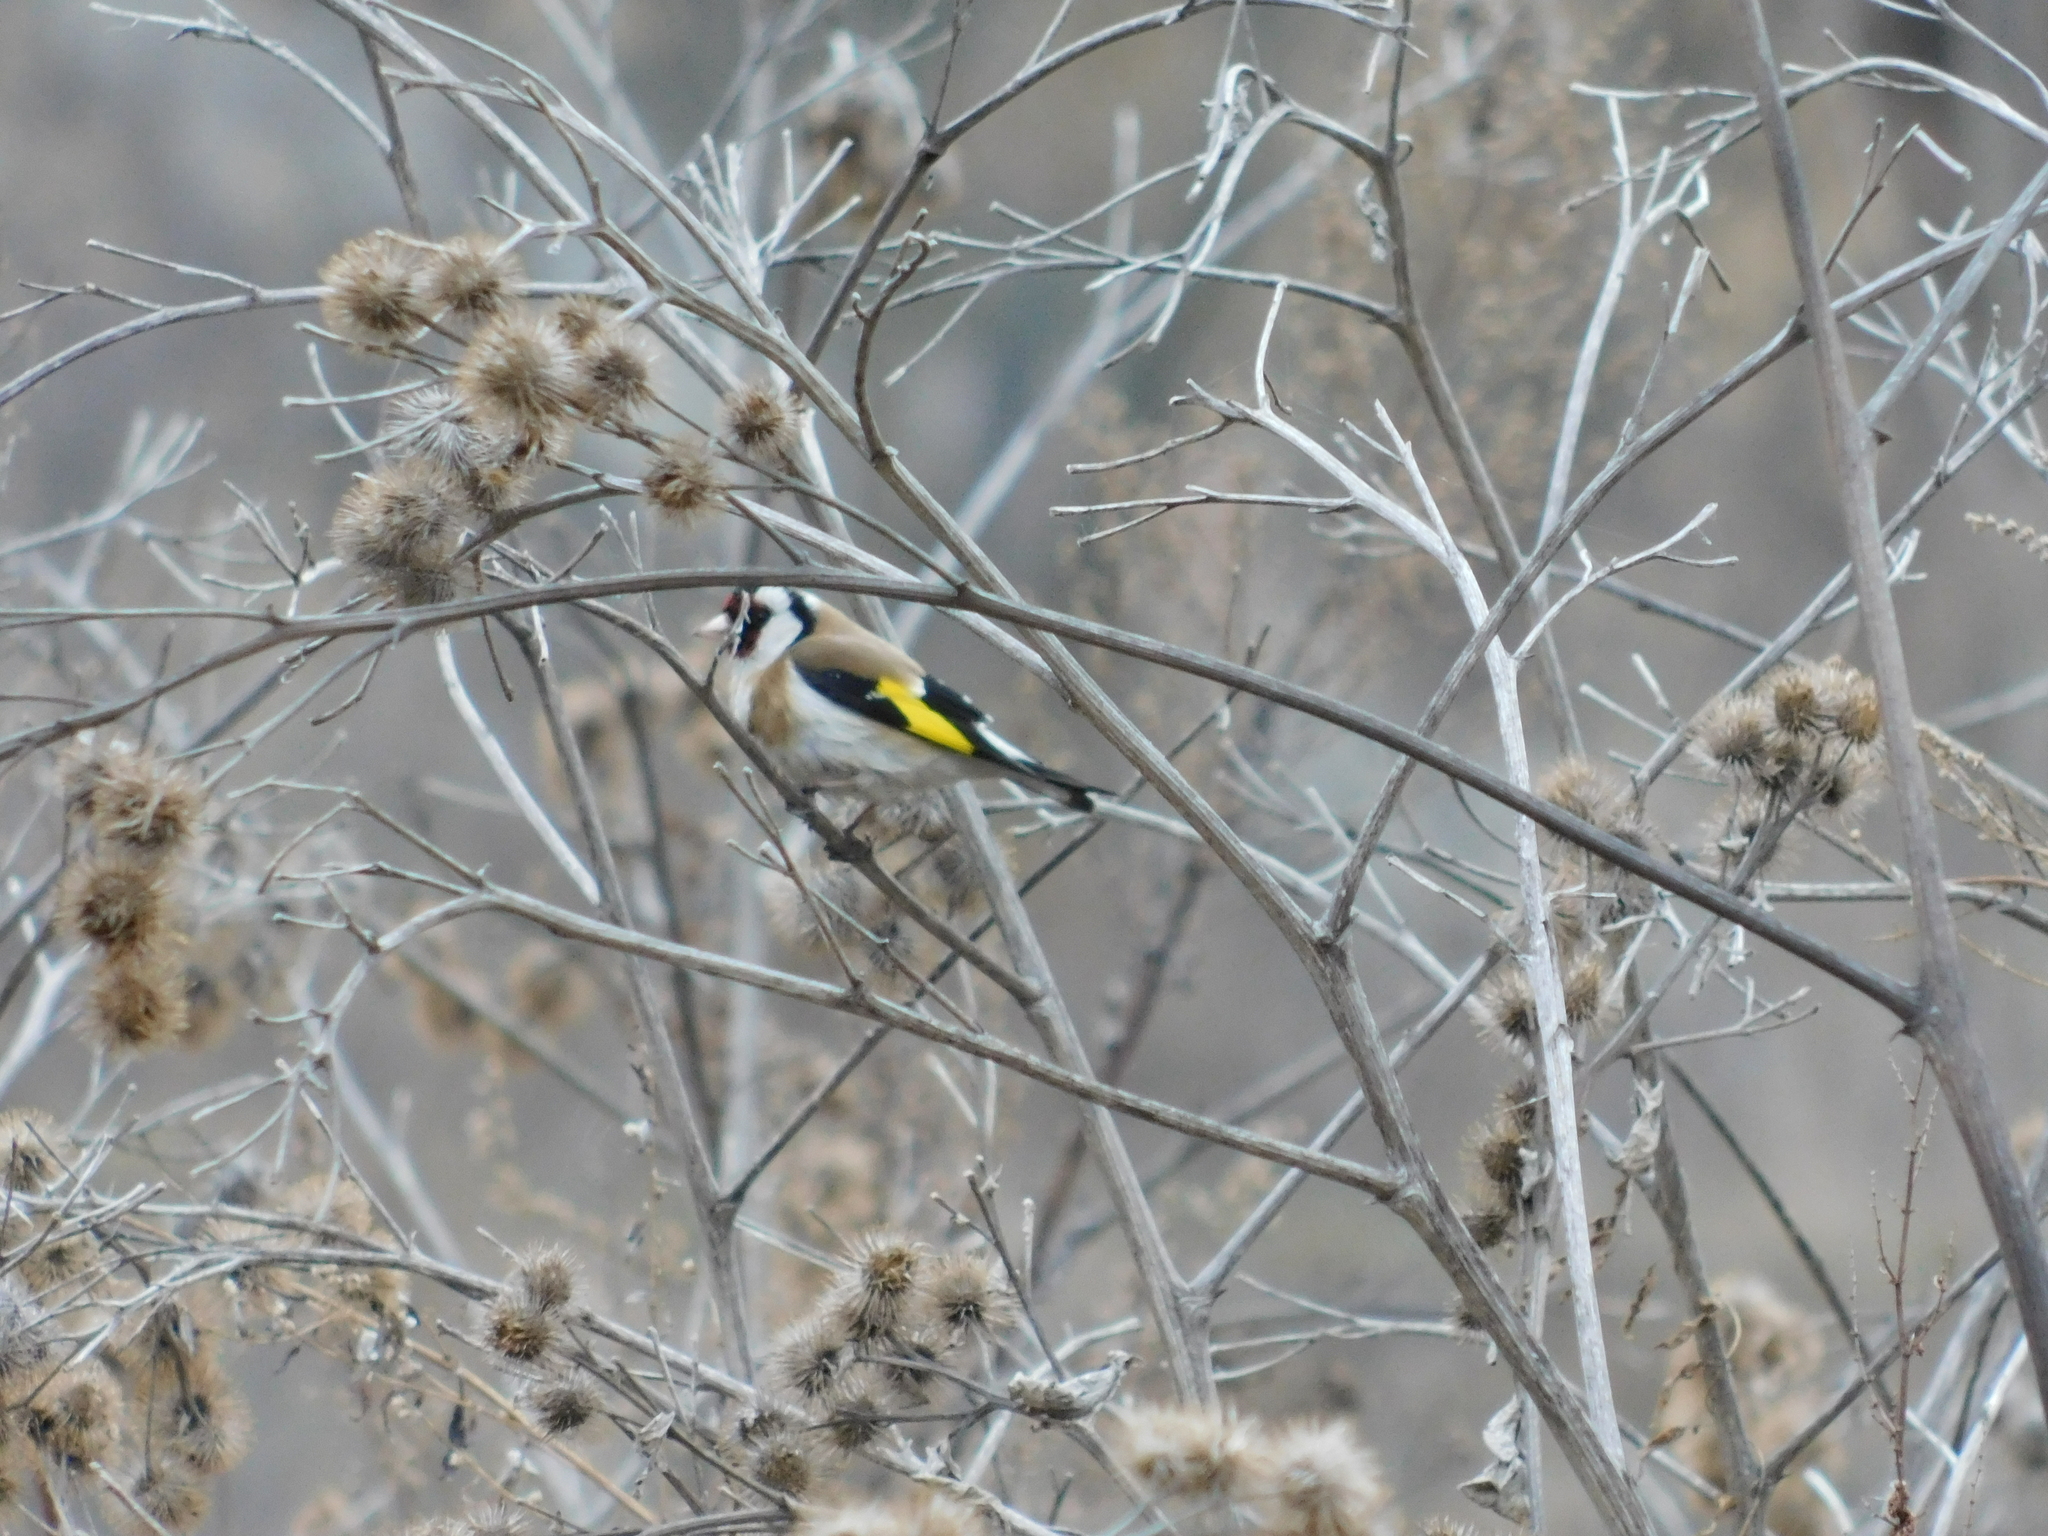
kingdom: Animalia
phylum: Chordata
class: Aves
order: Passeriformes
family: Fringillidae
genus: Carduelis
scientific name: Carduelis carduelis
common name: European goldfinch
